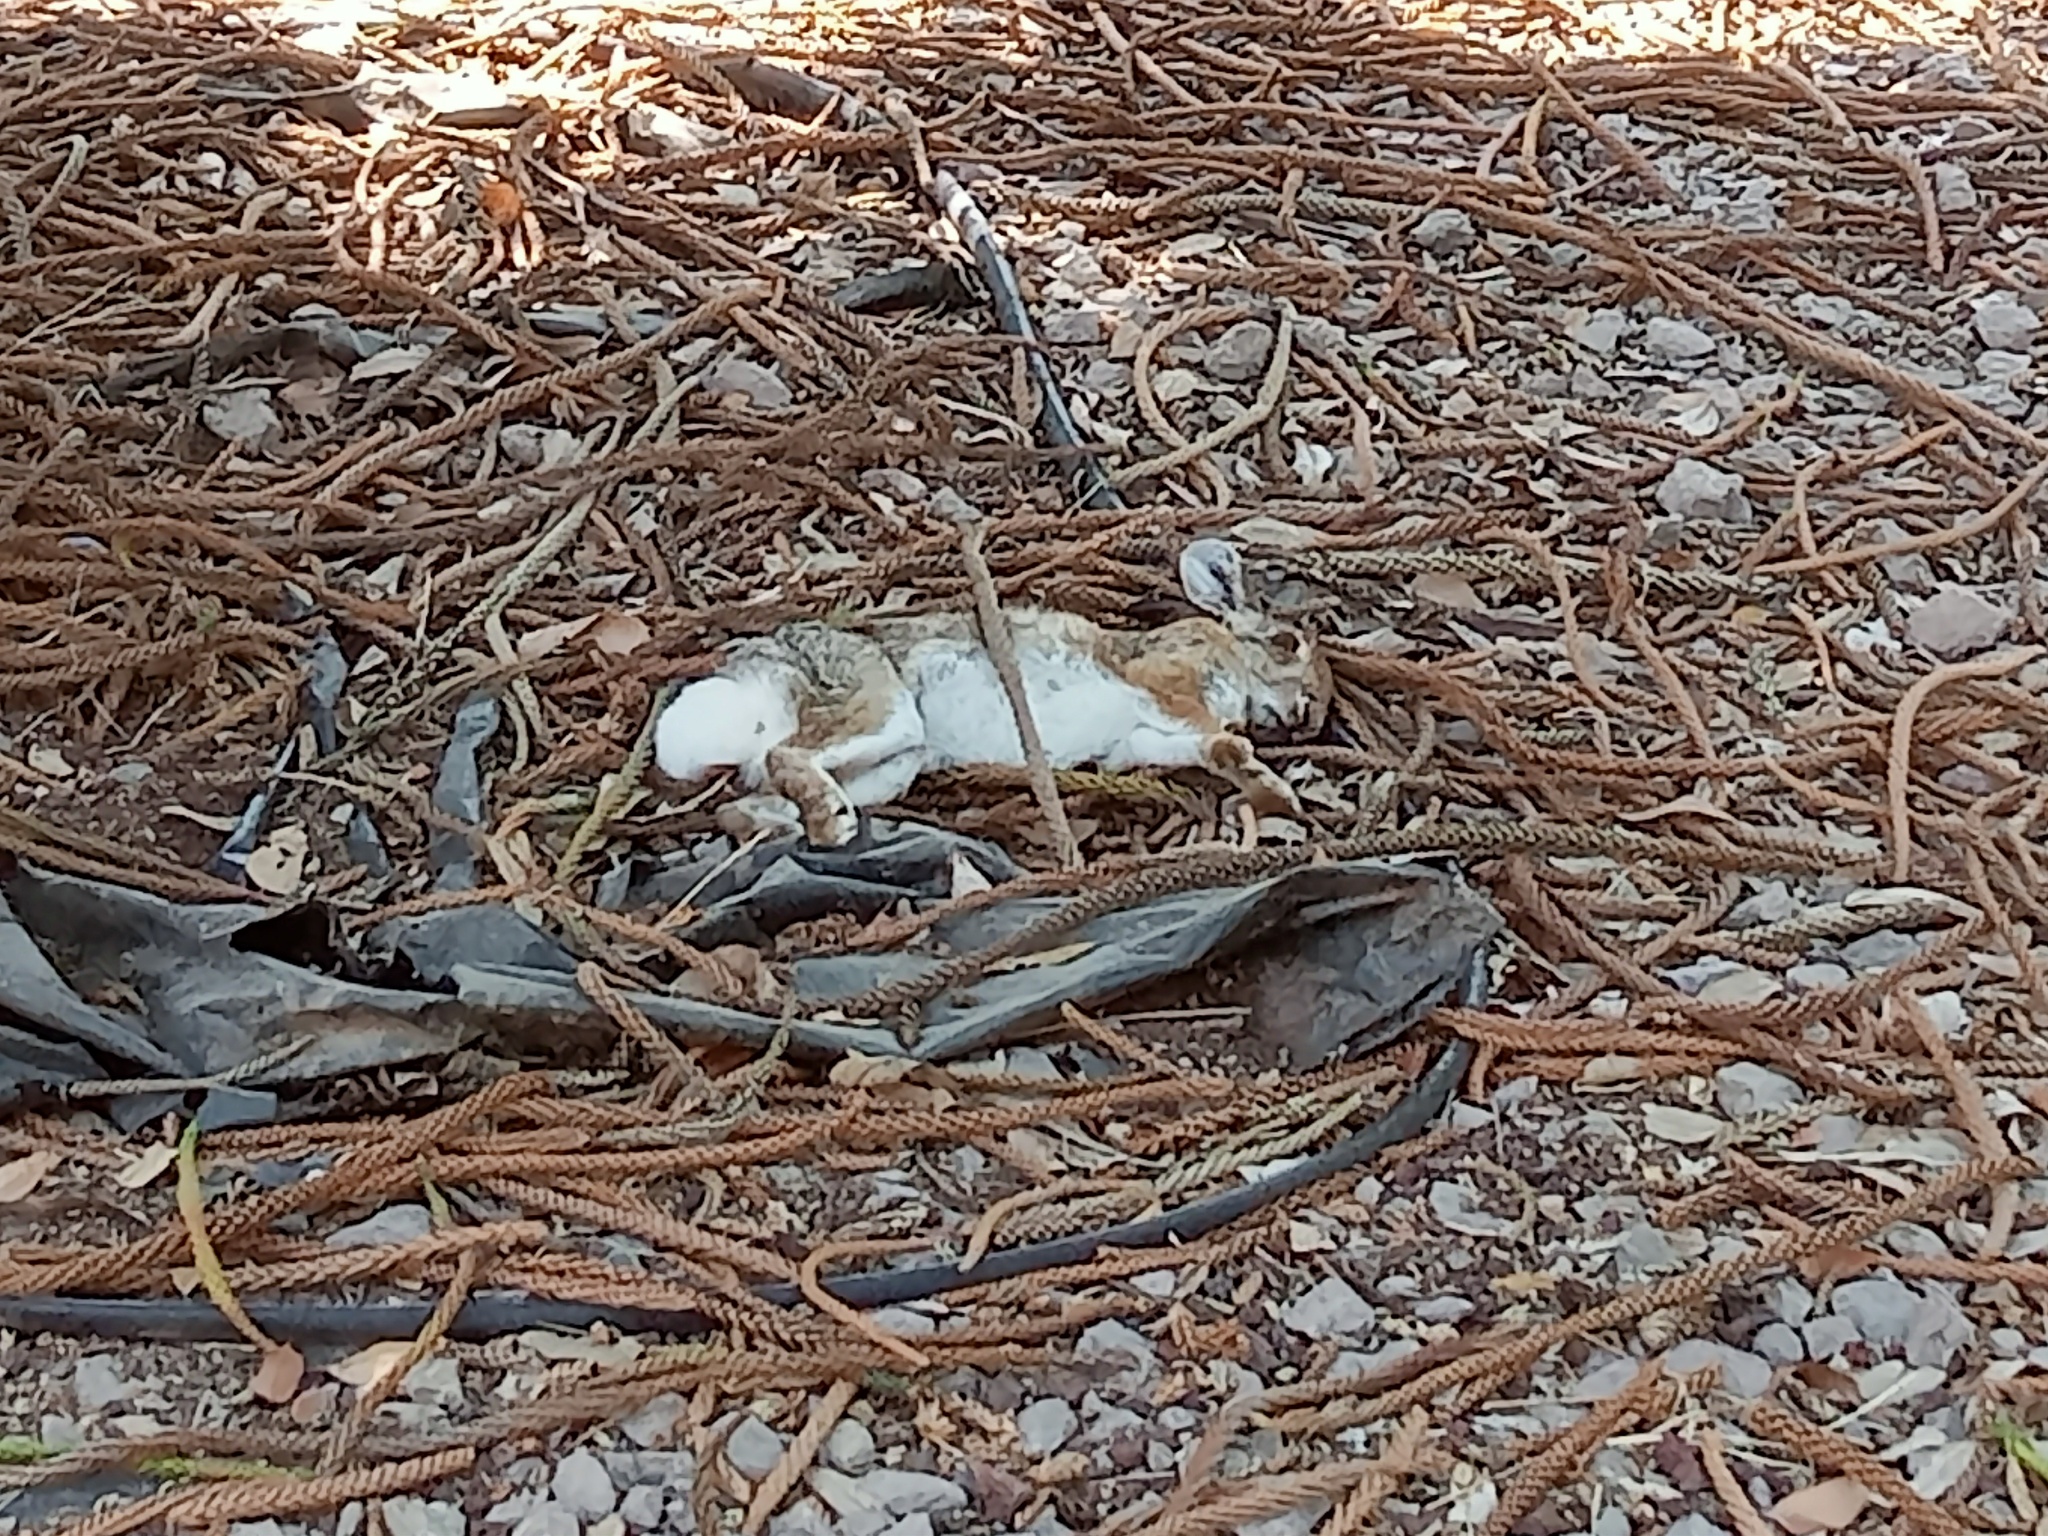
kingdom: Animalia
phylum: Chordata
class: Mammalia
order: Lagomorpha
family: Leporidae
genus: Sylvilagus
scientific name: Sylvilagus audubonii
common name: Desert cottontail
